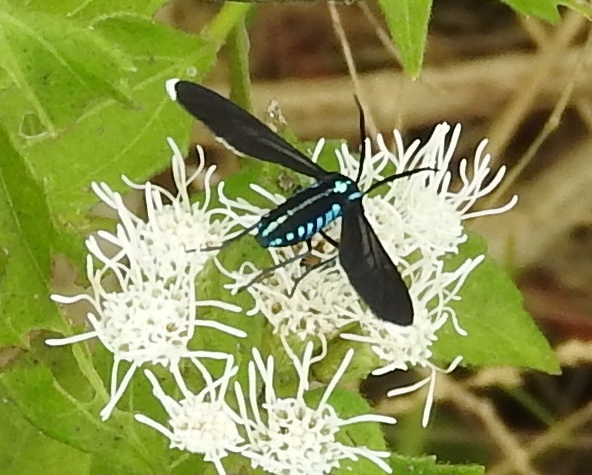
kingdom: Animalia
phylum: Arthropoda
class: Insecta
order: Lepidoptera
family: Erebidae
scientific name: Erebidae
